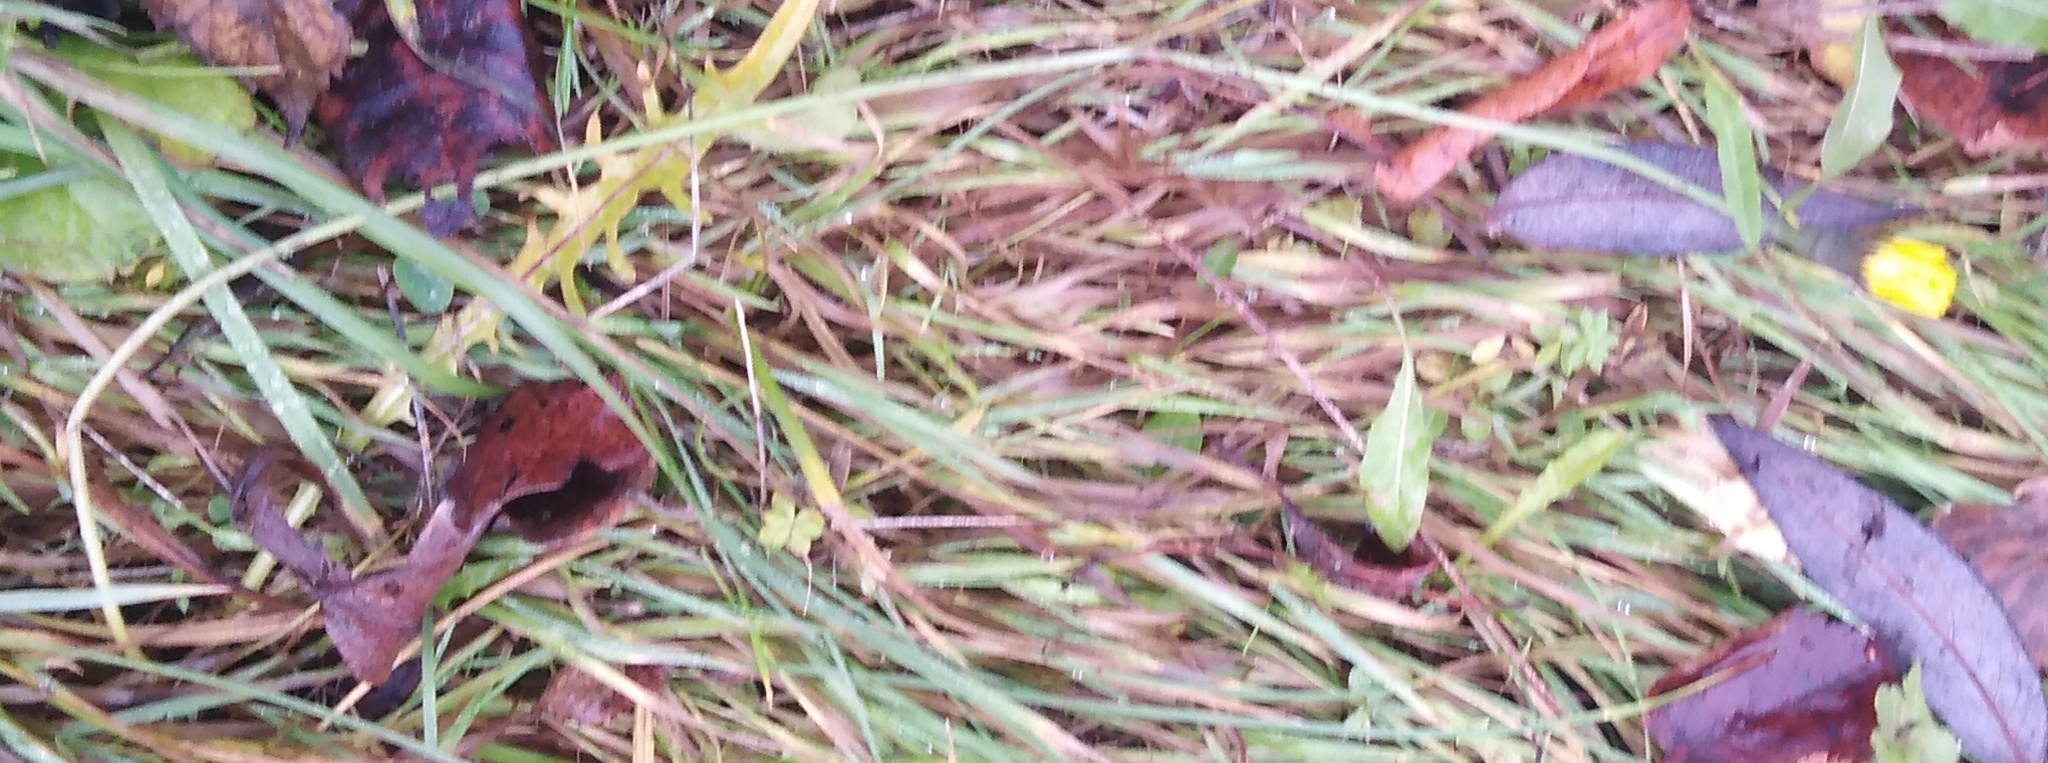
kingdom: Plantae
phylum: Tracheophyta
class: Magnoliopsida
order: Asterales
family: Asteraceae
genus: Scorzoneroides
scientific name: Scorzoneroides autumnalis
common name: Autumn hawkbit
